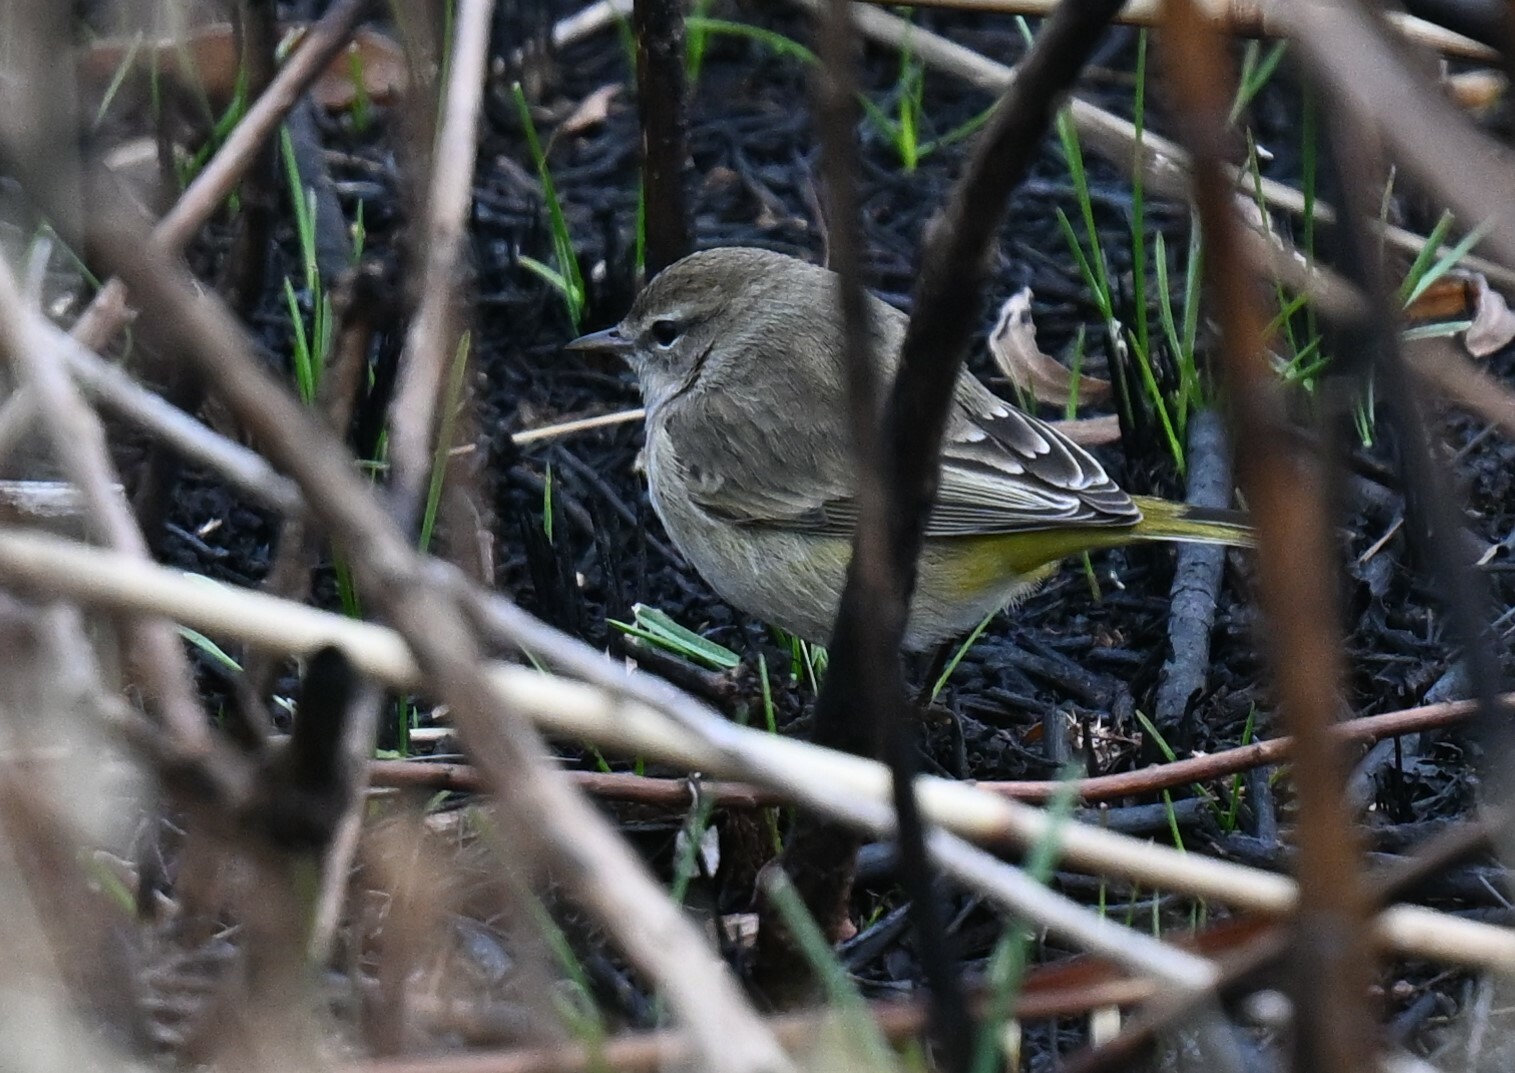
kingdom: Animalia
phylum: Chordata
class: Aves
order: Passeriformes
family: Parulidae
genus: Setophaga
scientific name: Setophaga palmarum
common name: Palm warbler
